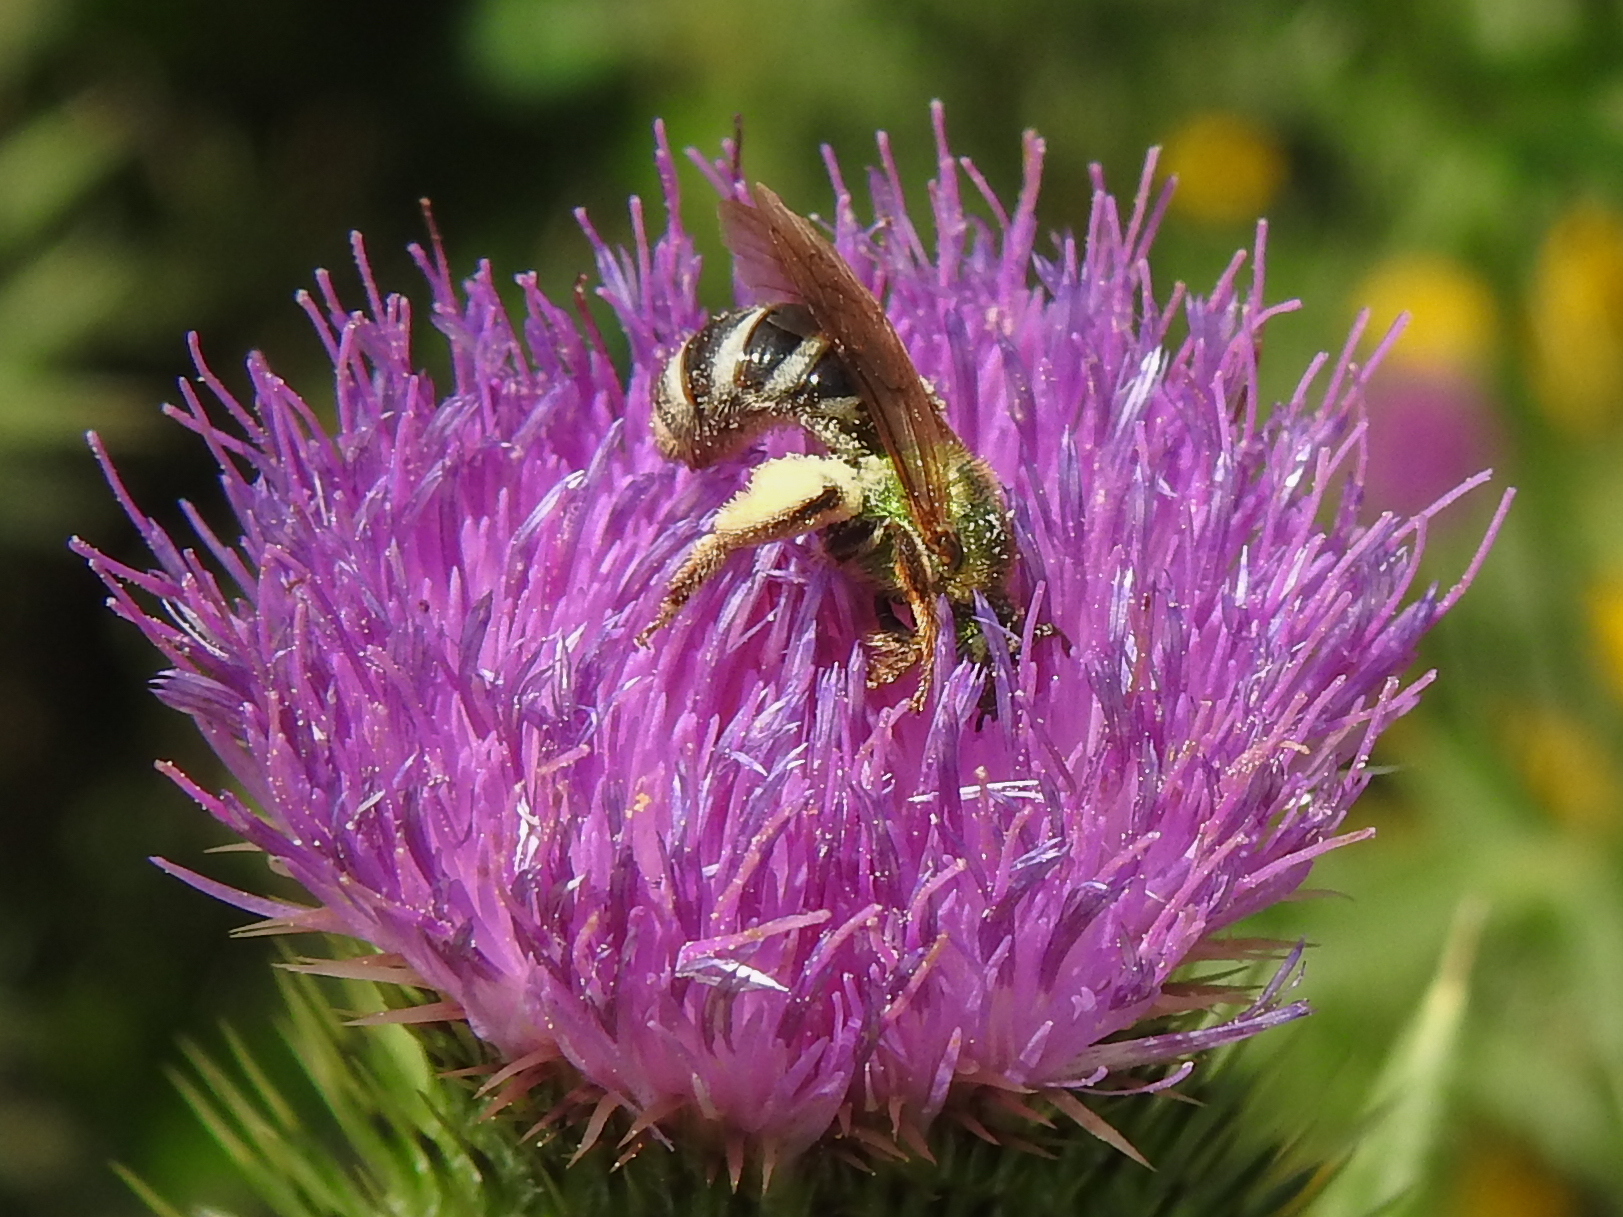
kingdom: Animalia
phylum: Arthropoda
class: Insecta
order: Hymenoptera
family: Halictidae
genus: Agapostemon
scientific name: Agapostemon virescens
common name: Bicolored striped sweat bee
